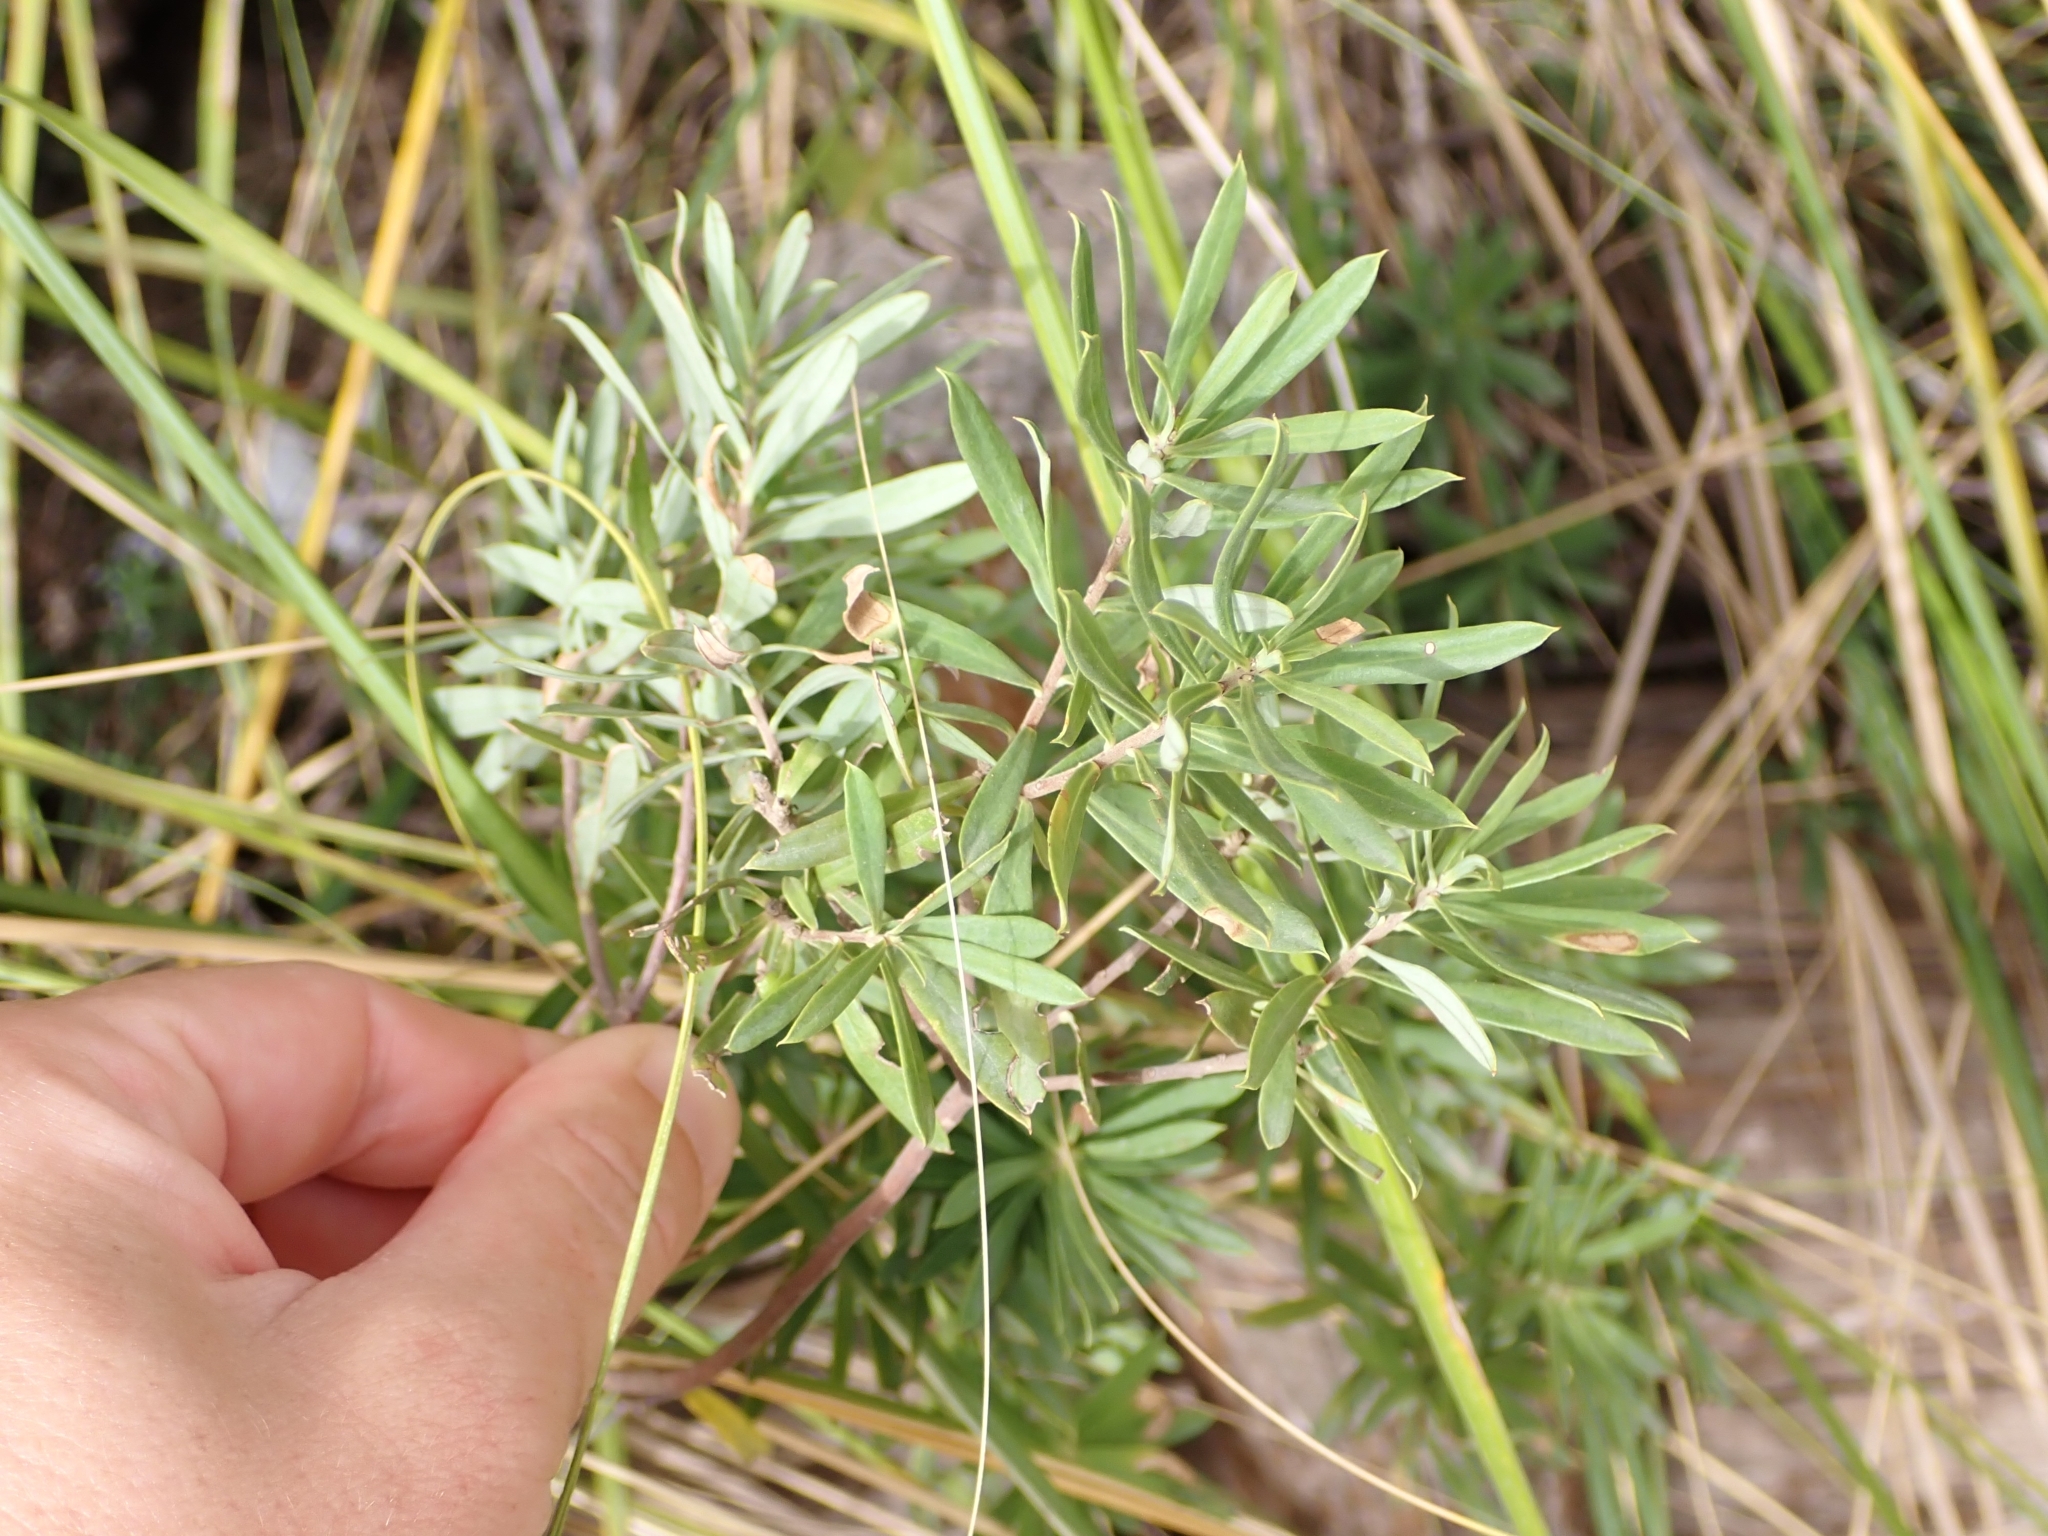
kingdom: Plantae
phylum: Tracheophyta
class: Magnoliopsida
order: Malvales
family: Thymelaeaceae
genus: Daphne
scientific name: Daphne gnidium
